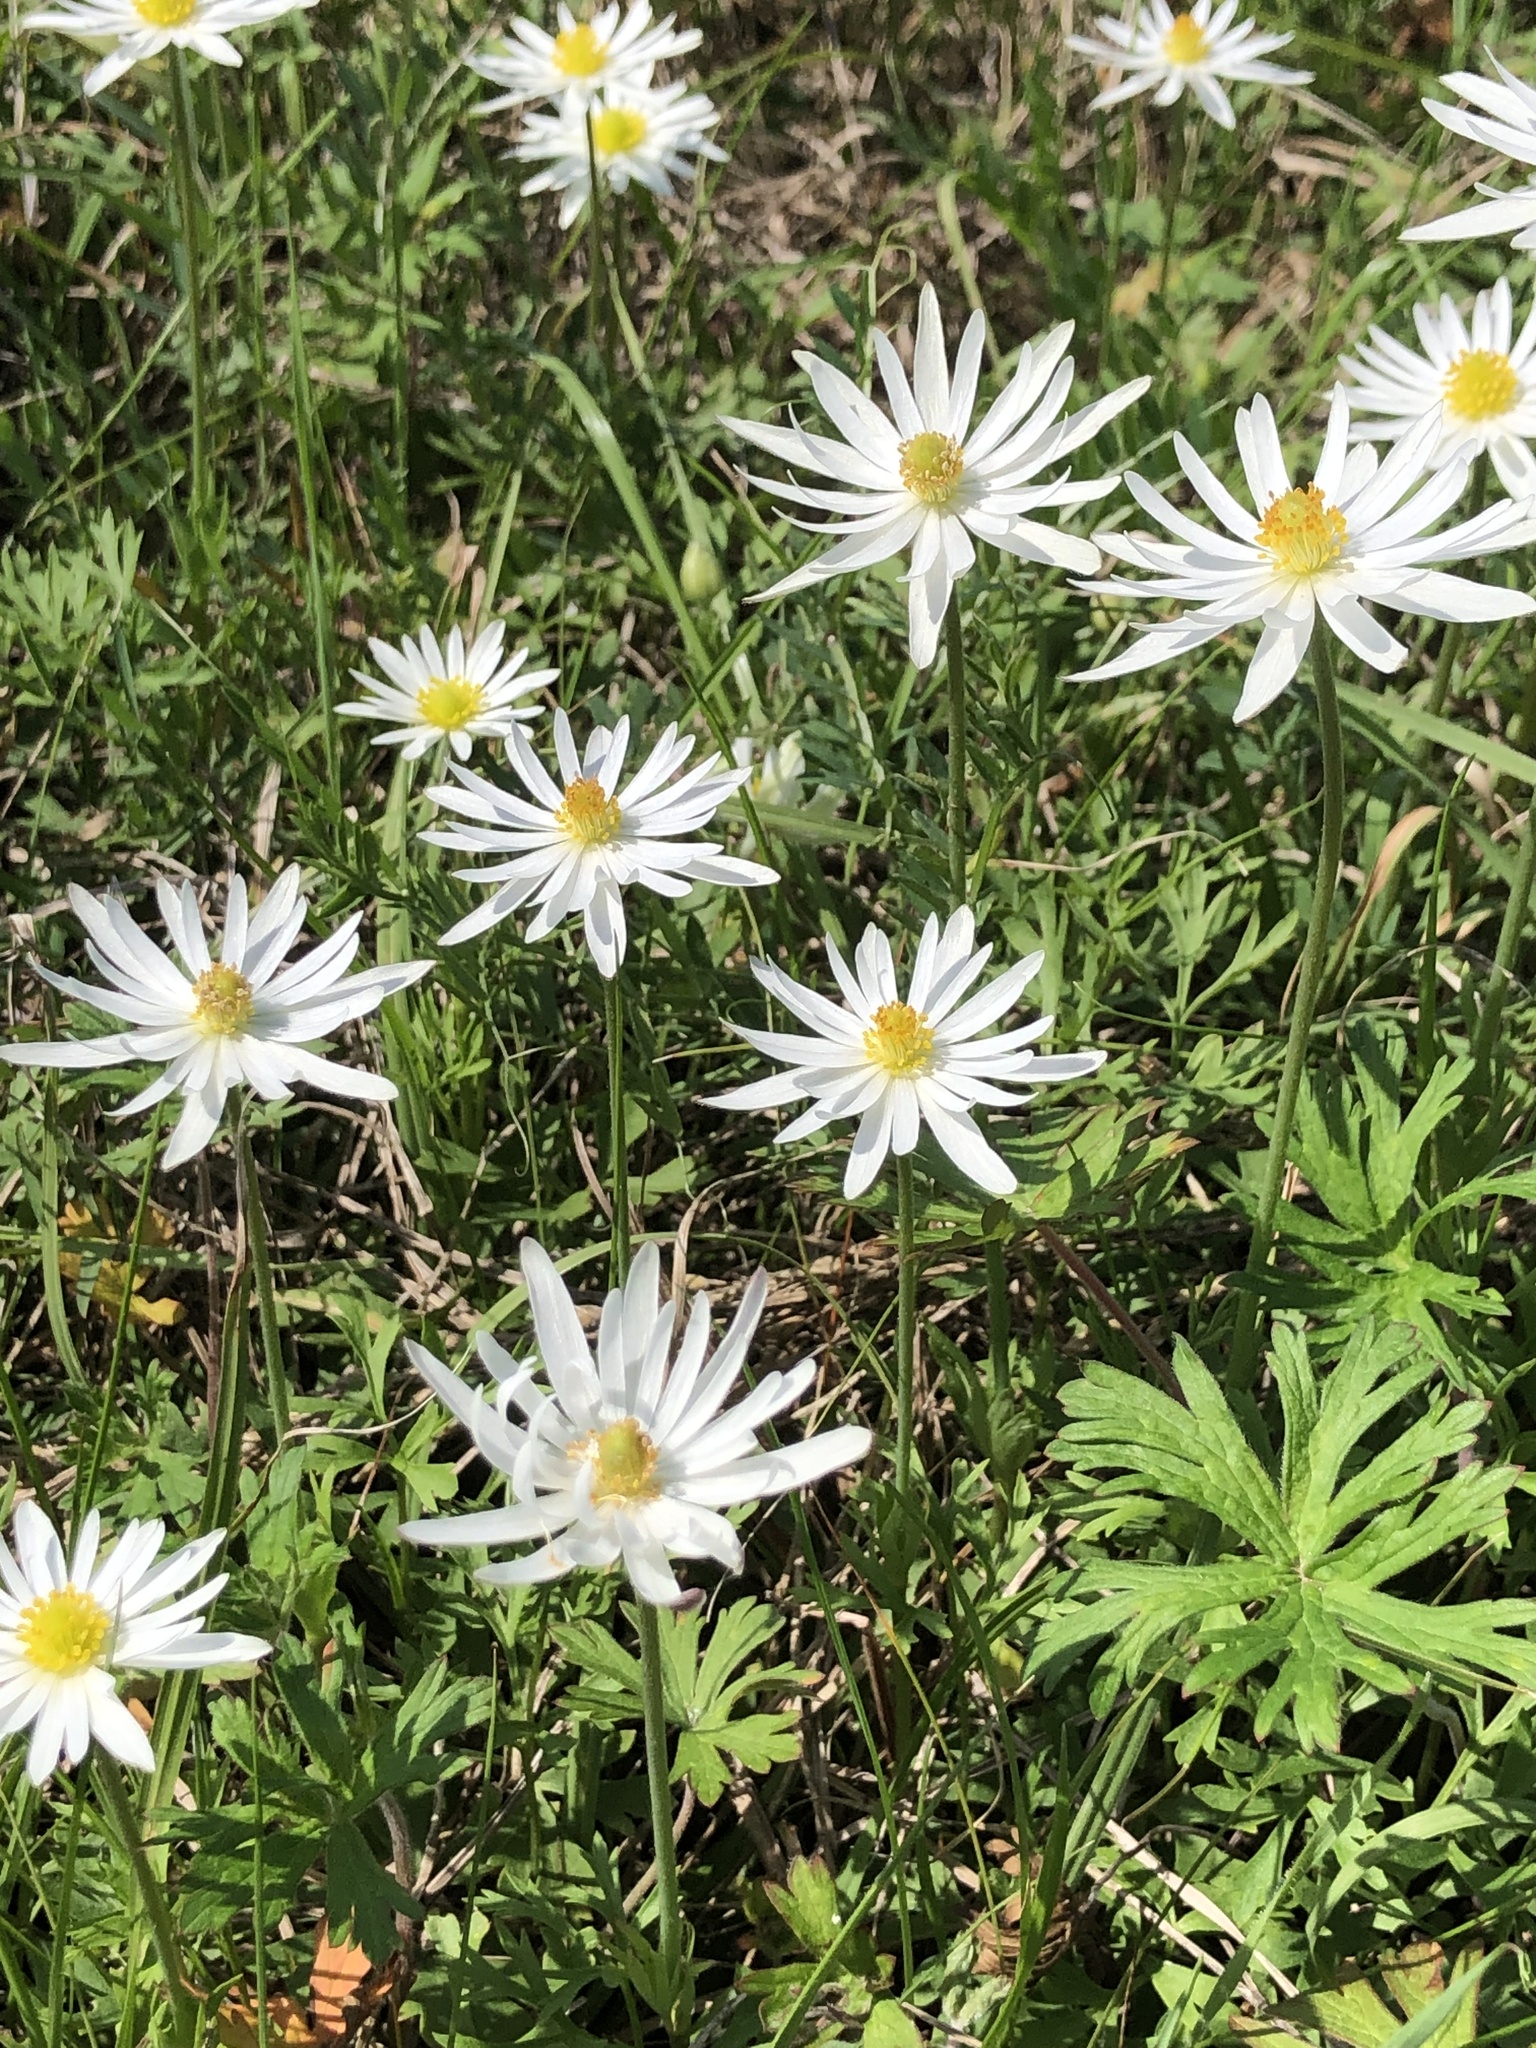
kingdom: Plantae
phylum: Tracheophyta
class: Magnoliopsida
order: Ranunculales
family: Ranunculaceae
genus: Anemone
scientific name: Anemone caroliniana
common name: Carolina anemone
